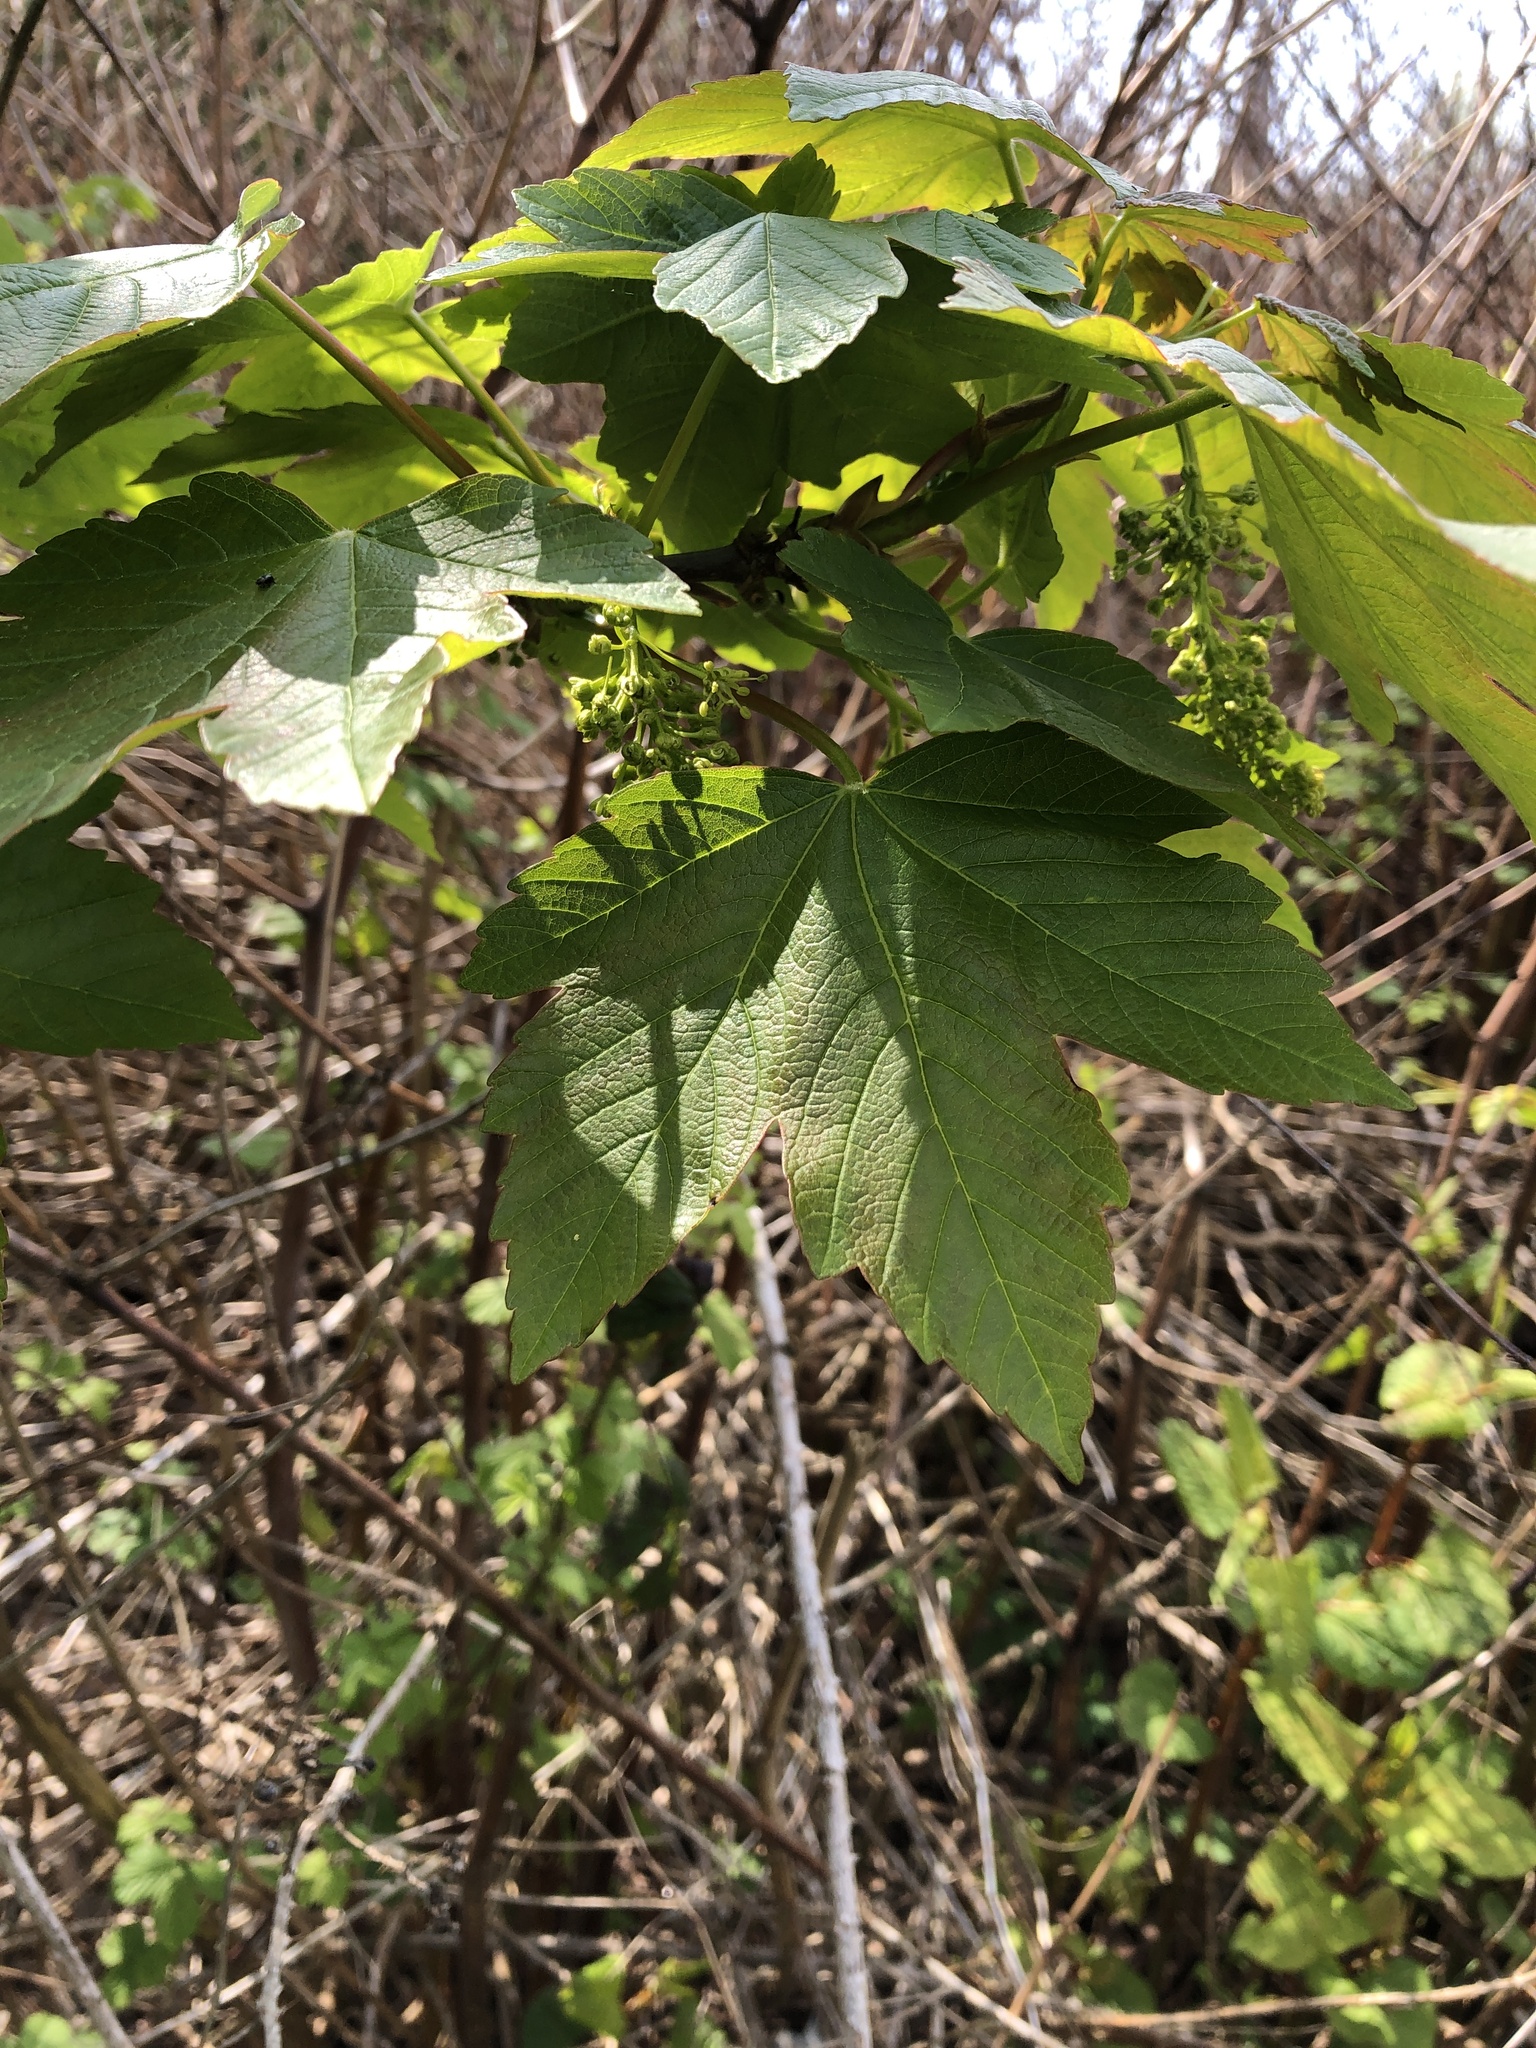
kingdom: Plantae
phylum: Tracheophyta
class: Magnoliopsida
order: Sapindales
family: Sapindaceae
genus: Acer
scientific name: Acer pseudoplatanus
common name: Sycamore
